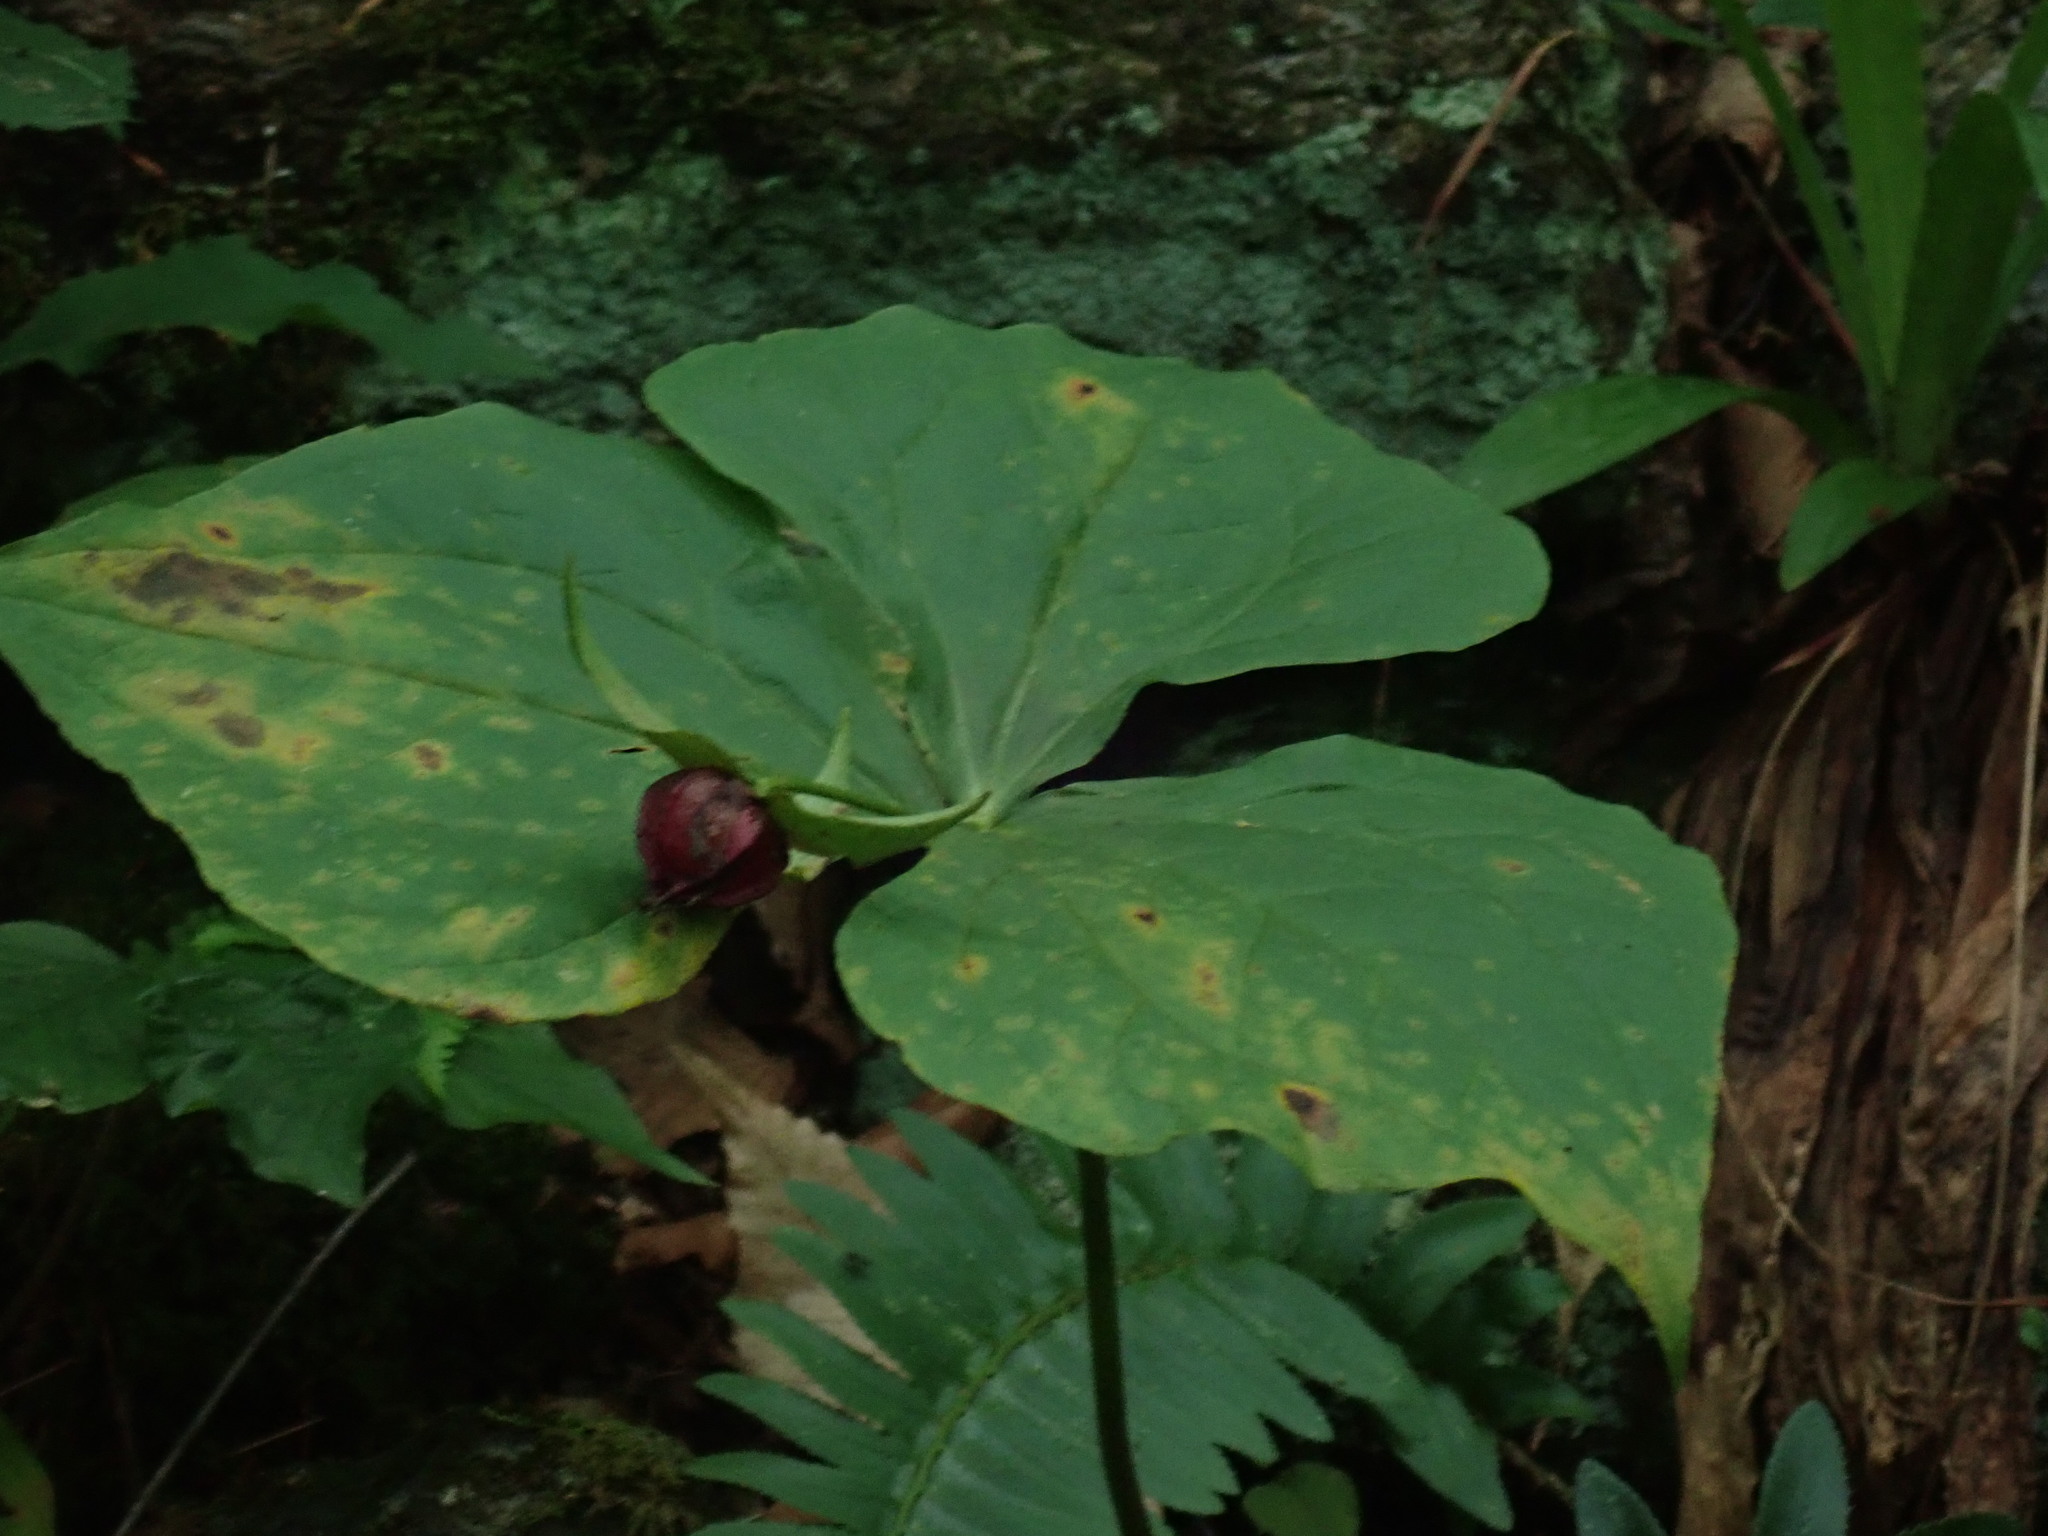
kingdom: Plantae
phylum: Tracheophyta
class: Liliopsida
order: Liliales
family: Melanthiaceae
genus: Trillium
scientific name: Trillium erectum
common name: Purple trillium
